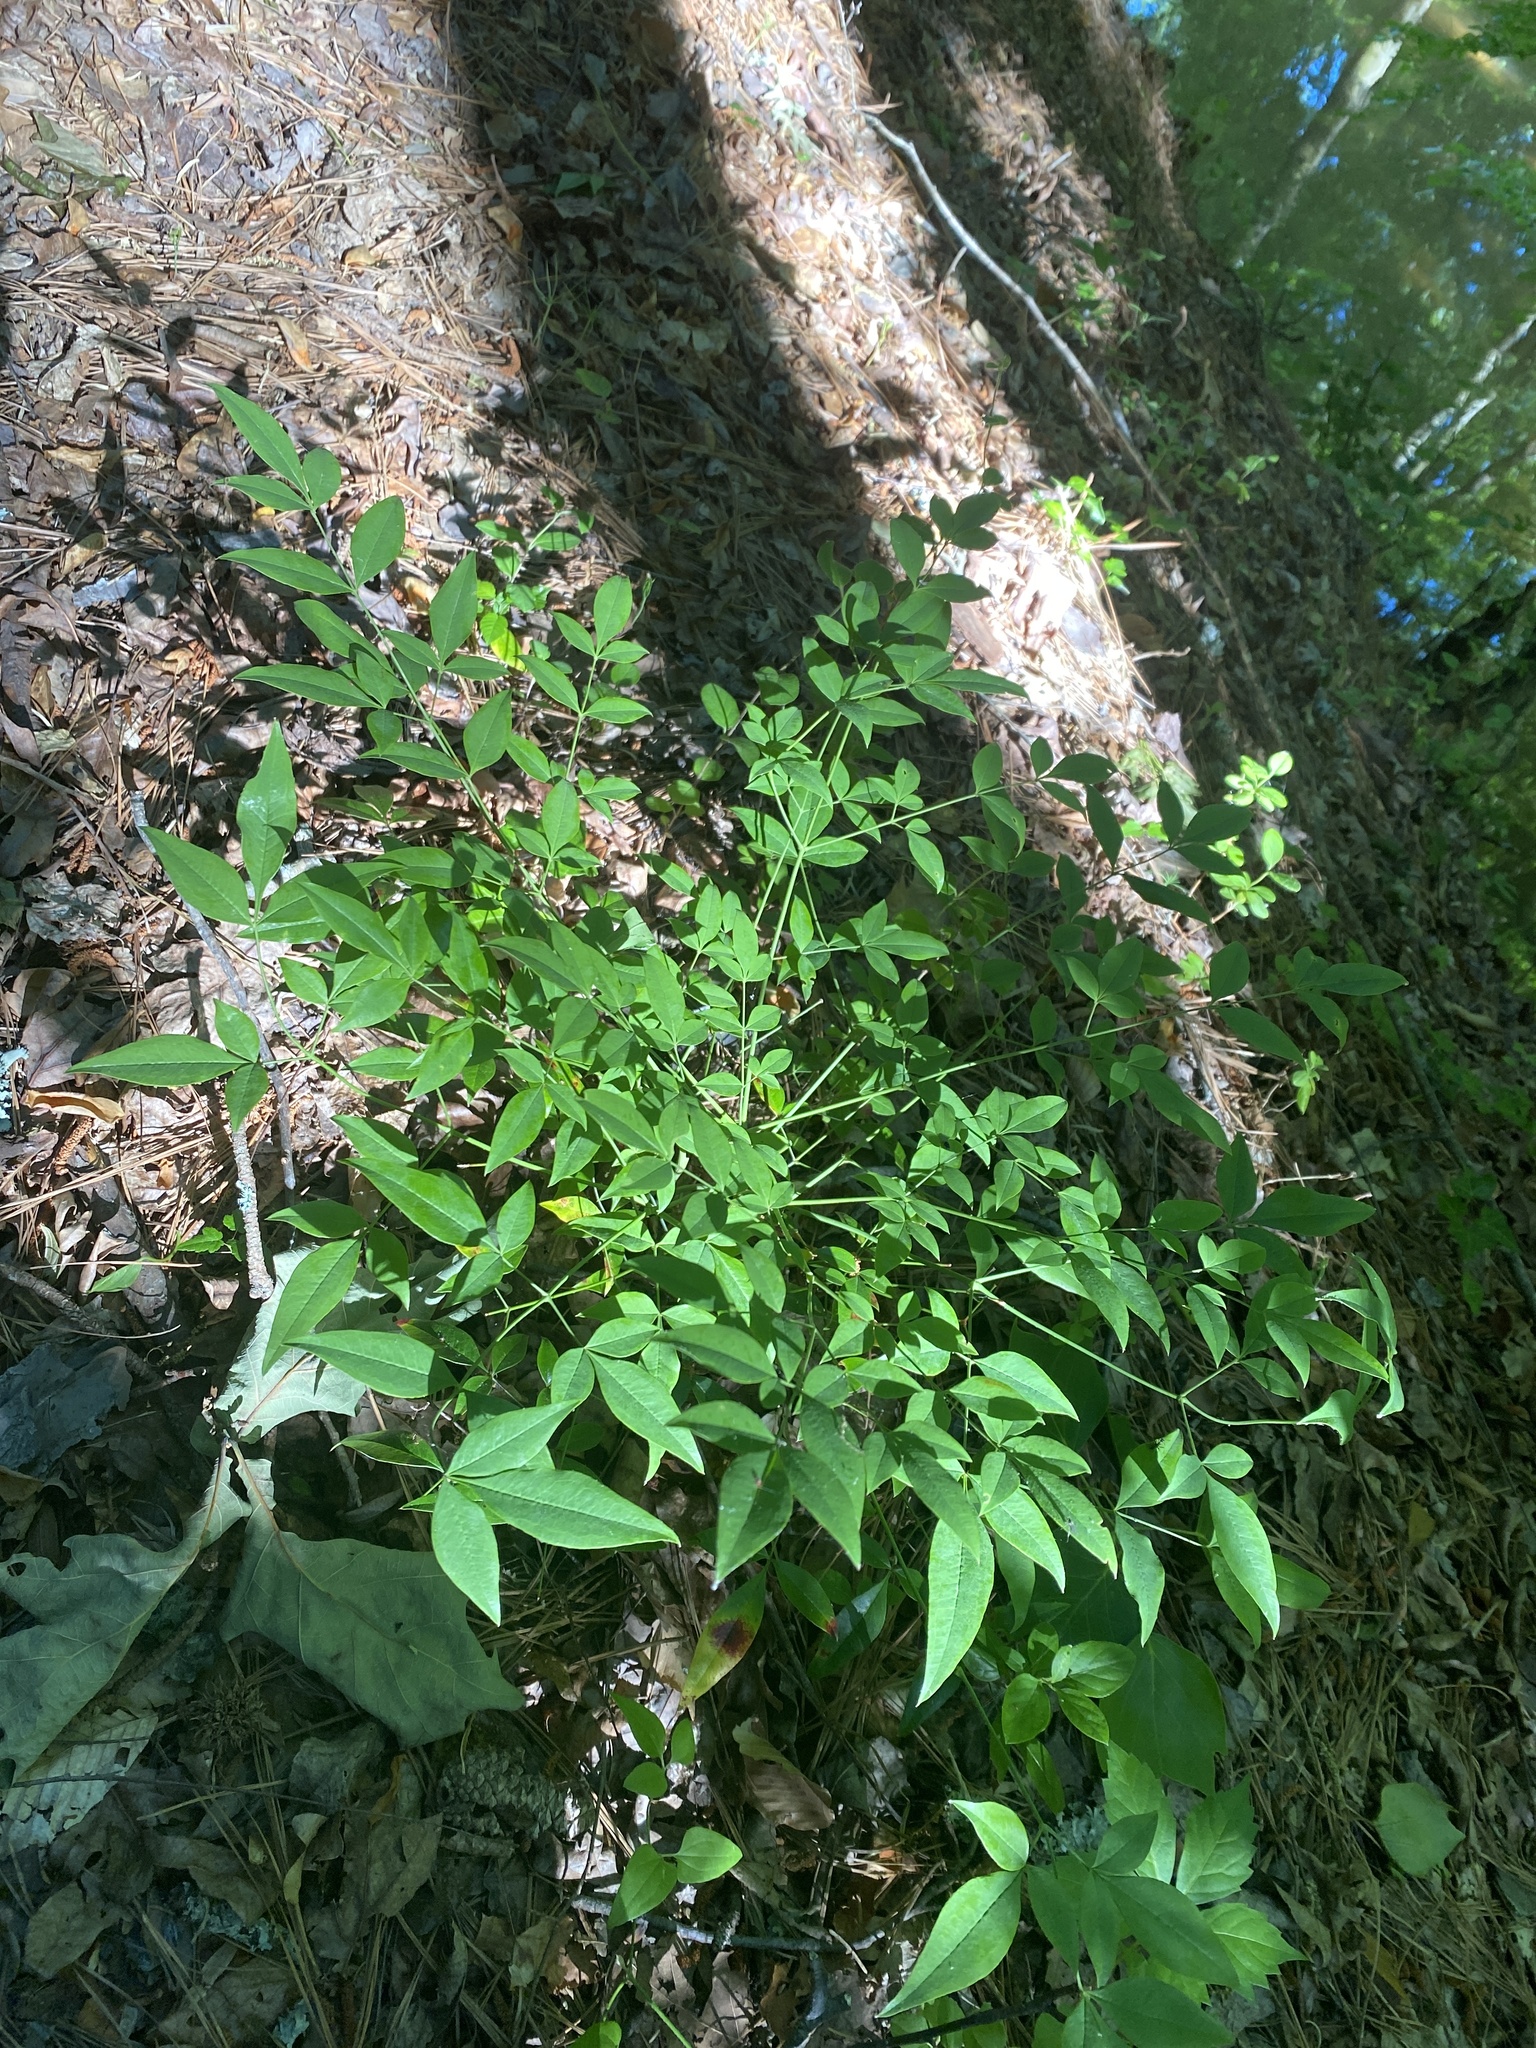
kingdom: Plantae
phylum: Tracheophyta
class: Magnoliopsida
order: Ranunculales
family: Berberidaceae
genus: Nandina
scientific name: Nandina domestica
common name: Sacred bamboo
